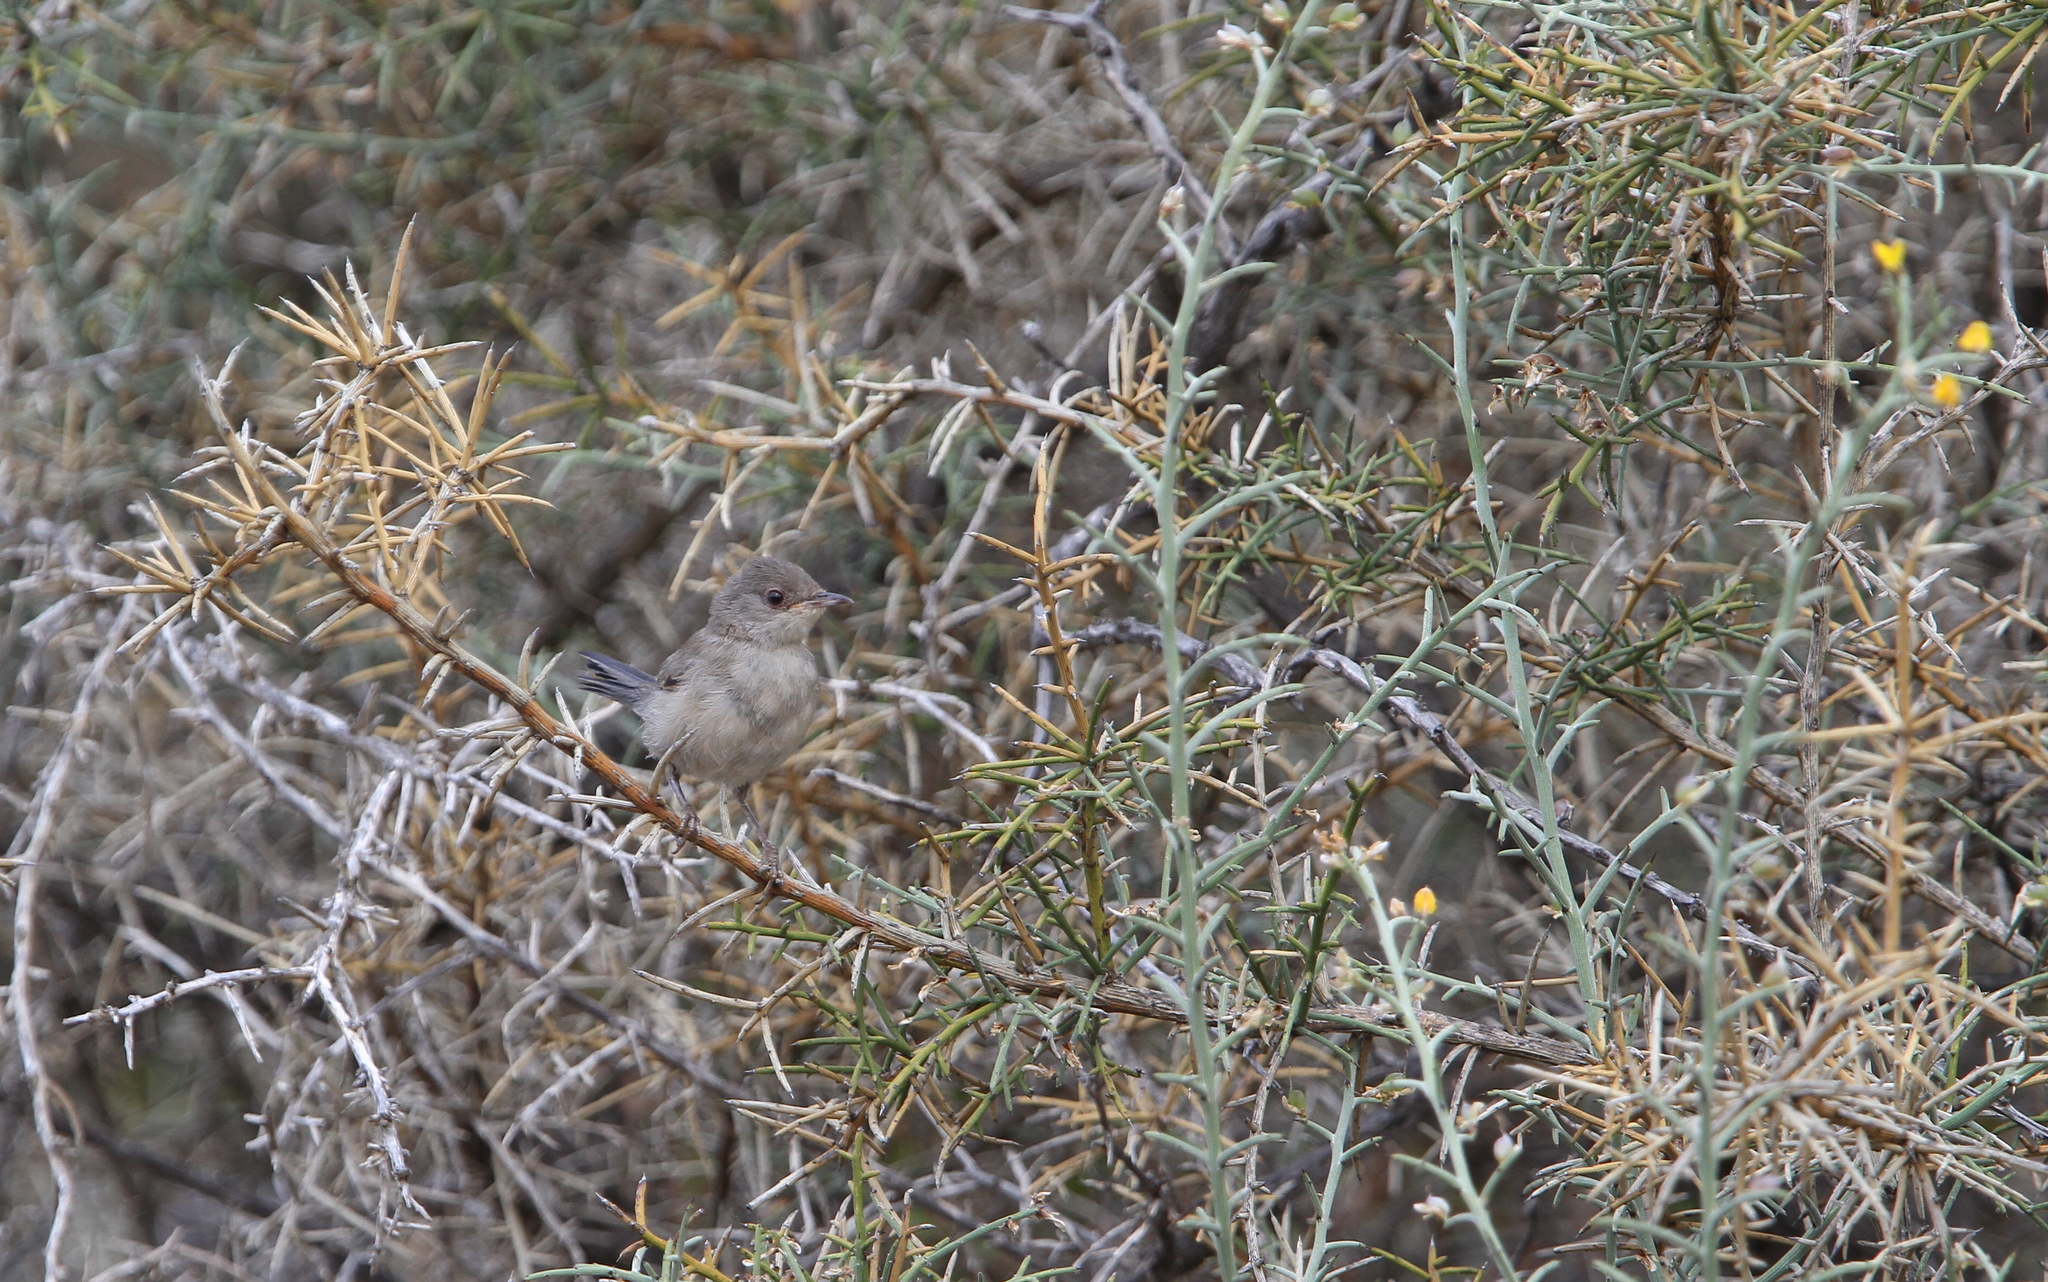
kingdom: Animalia
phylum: Chordata
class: Aves
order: Passeriformes
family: Sylviidae
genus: Sylvia
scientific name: Sylvia melanothorax
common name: Cyprus warbler
